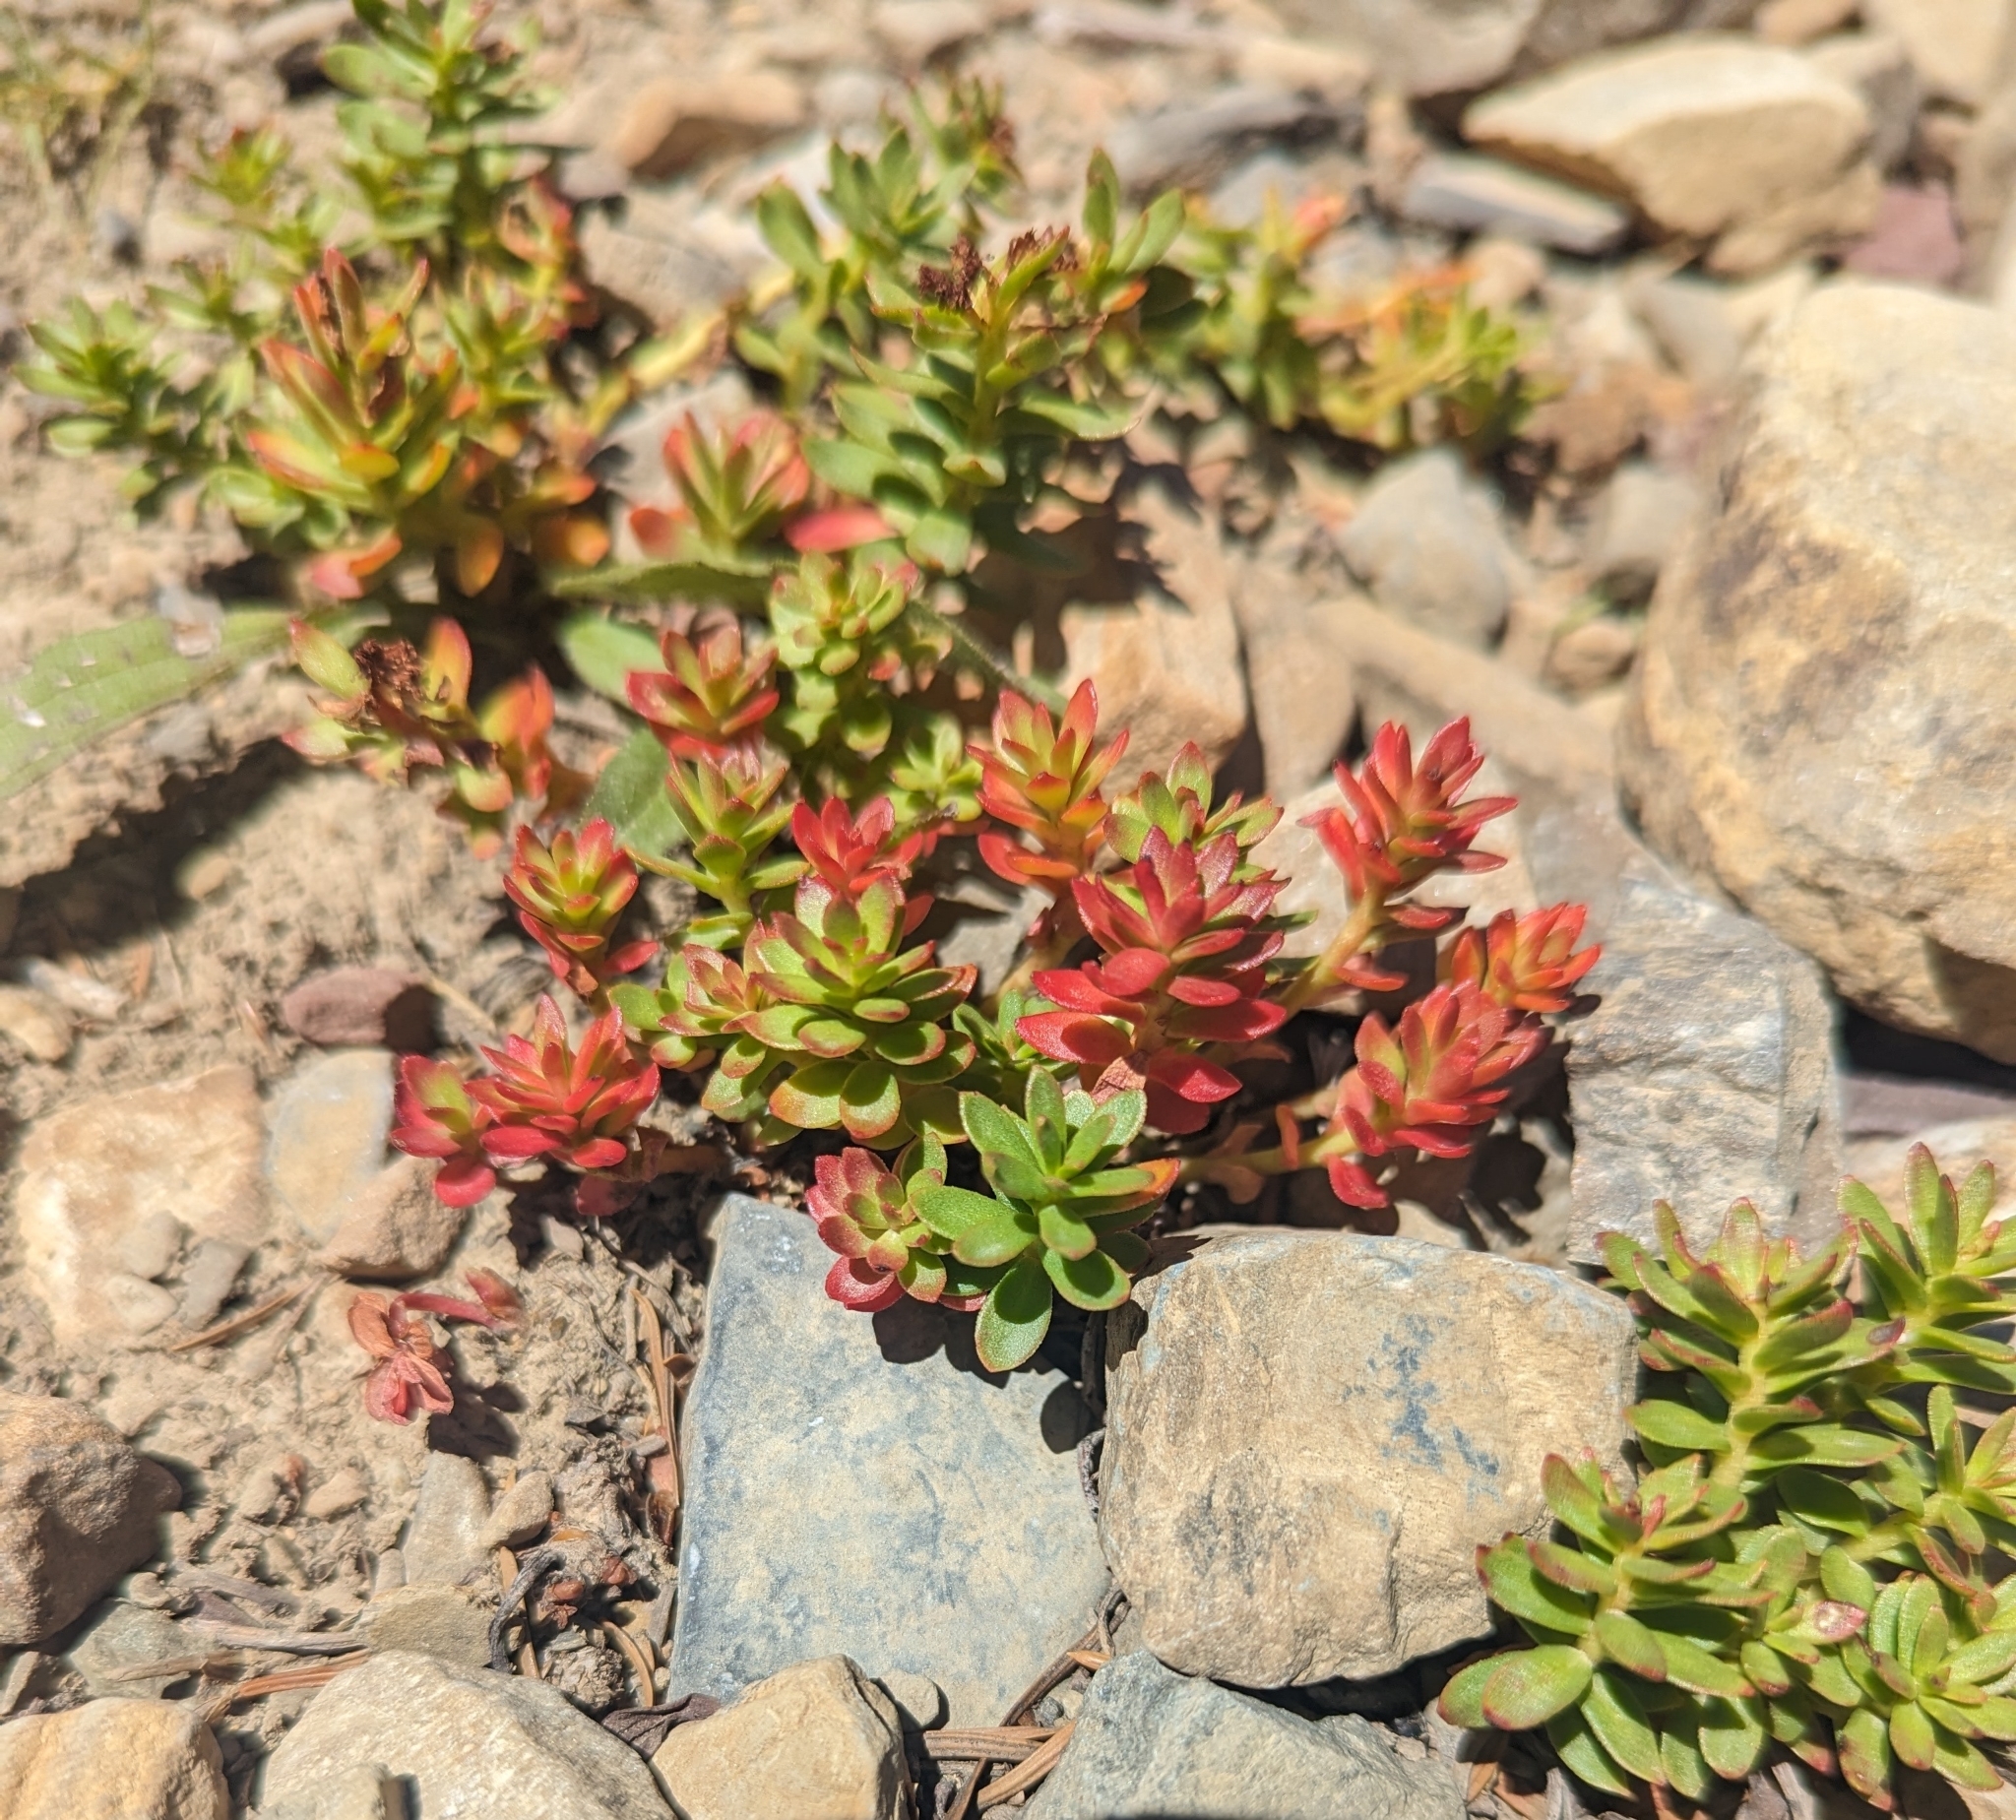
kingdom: Plantae
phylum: Tracheophyta
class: Magnoliopsida
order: Saxifragales
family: Crassulaceae
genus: Rhodiola
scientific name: Rhodiola integrifolia
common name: Western roseroot
